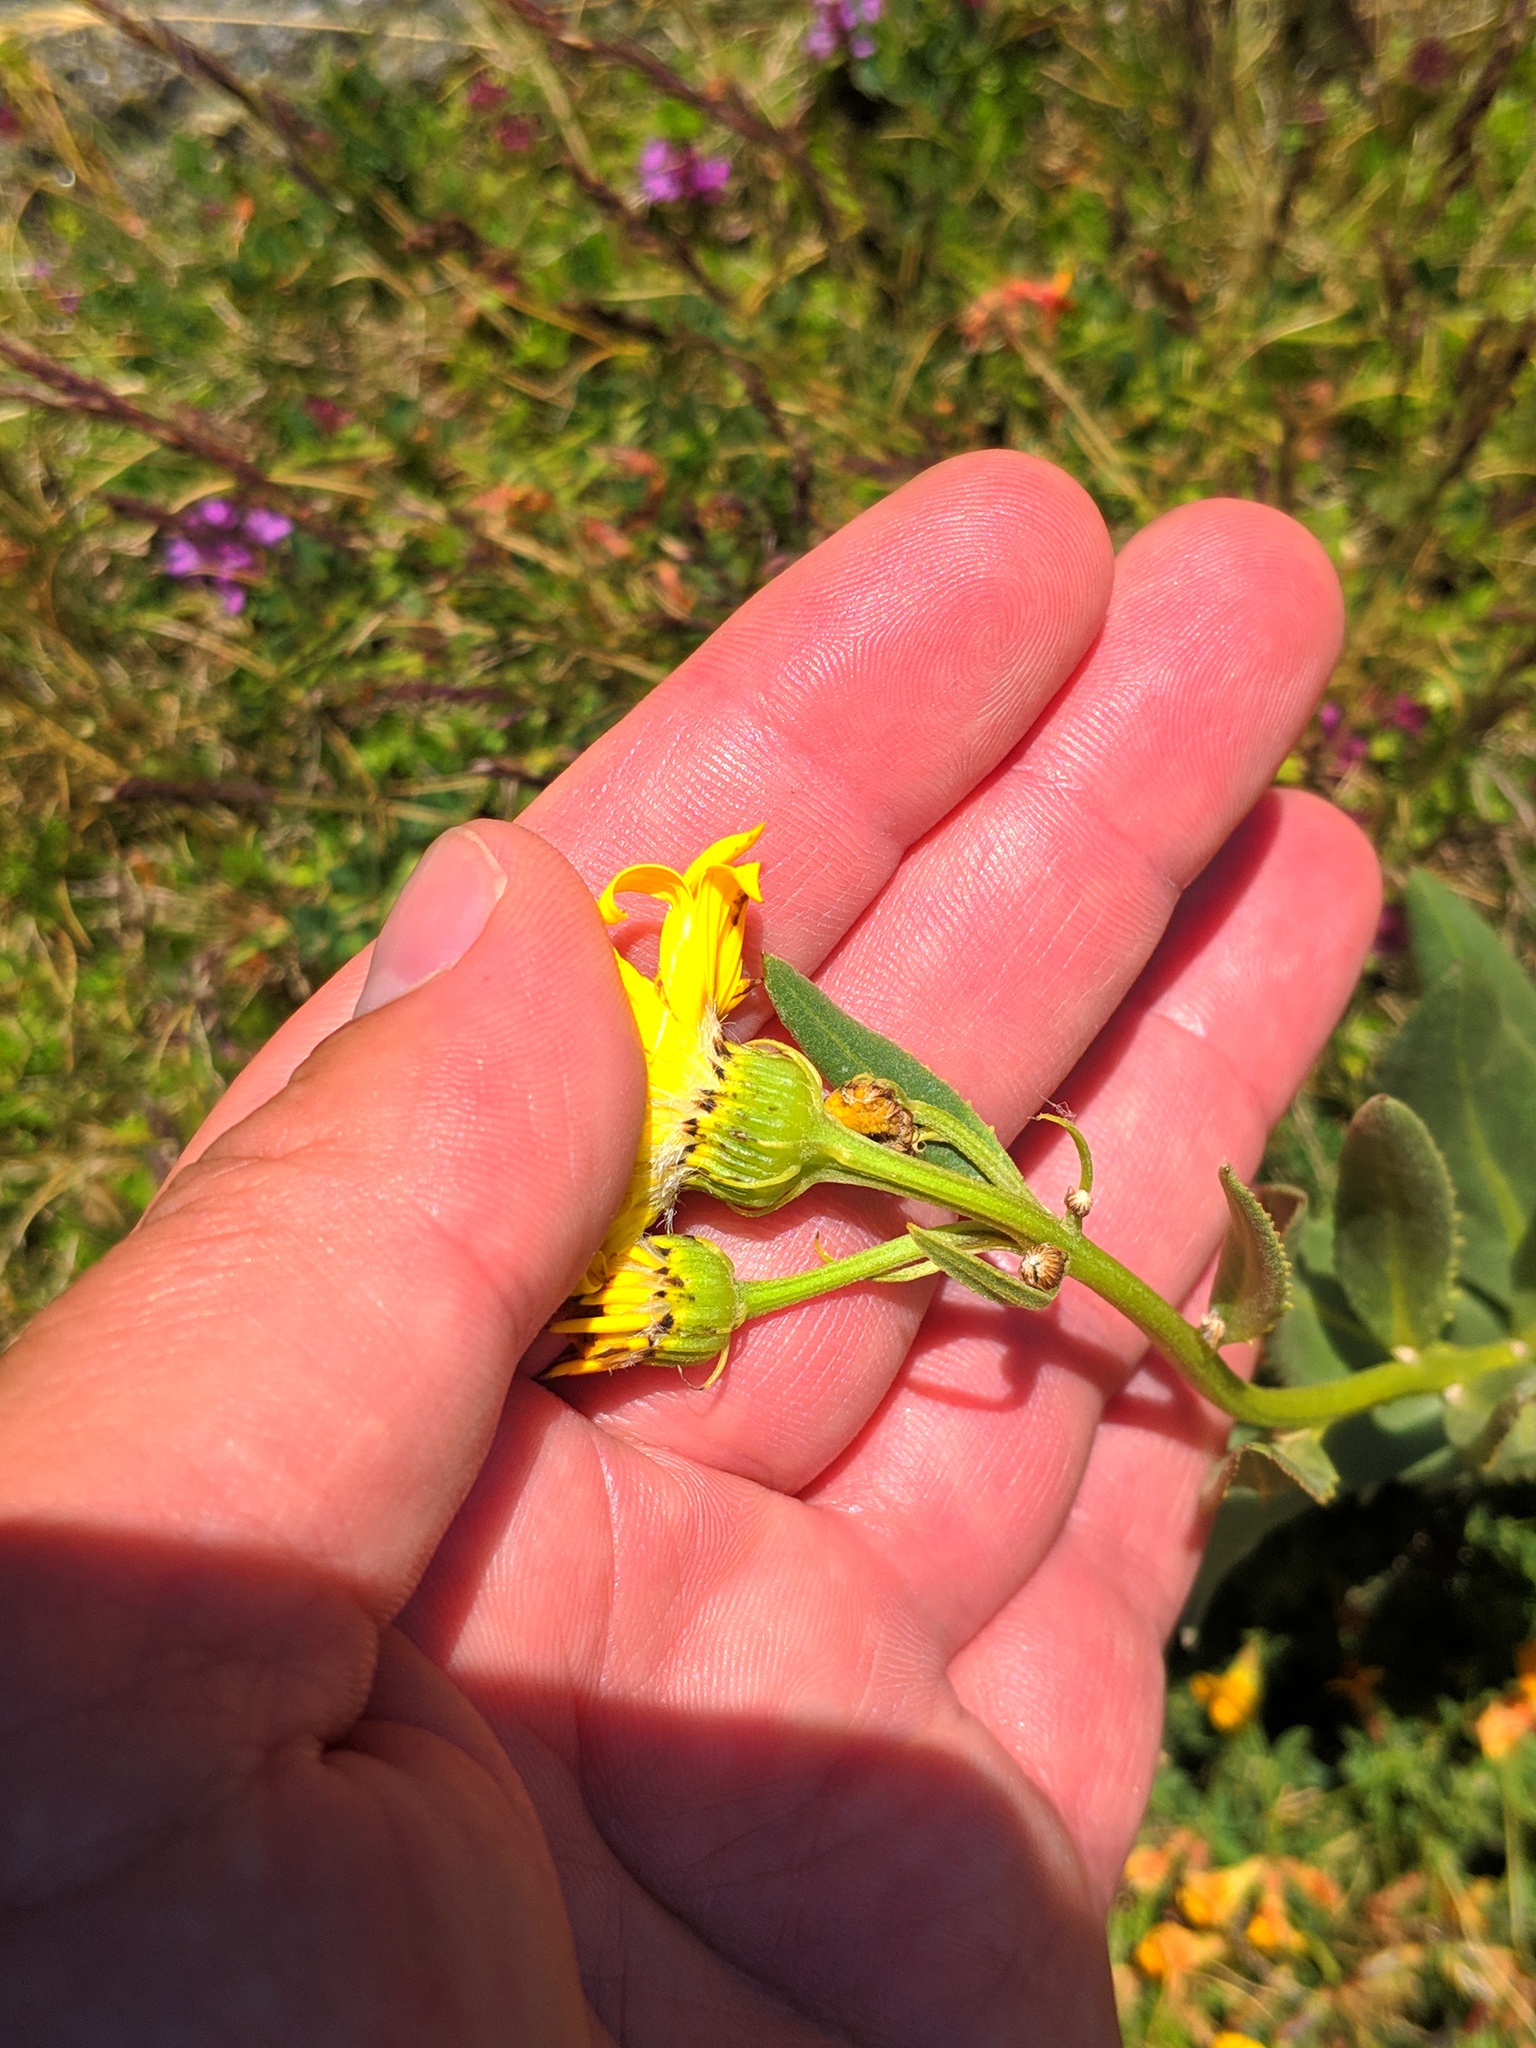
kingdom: Plantae
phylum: Tracheophyta
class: Magnoliopsida
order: Asterales
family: Asteraceae
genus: Senecio
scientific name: Senecio pyrenaicus
